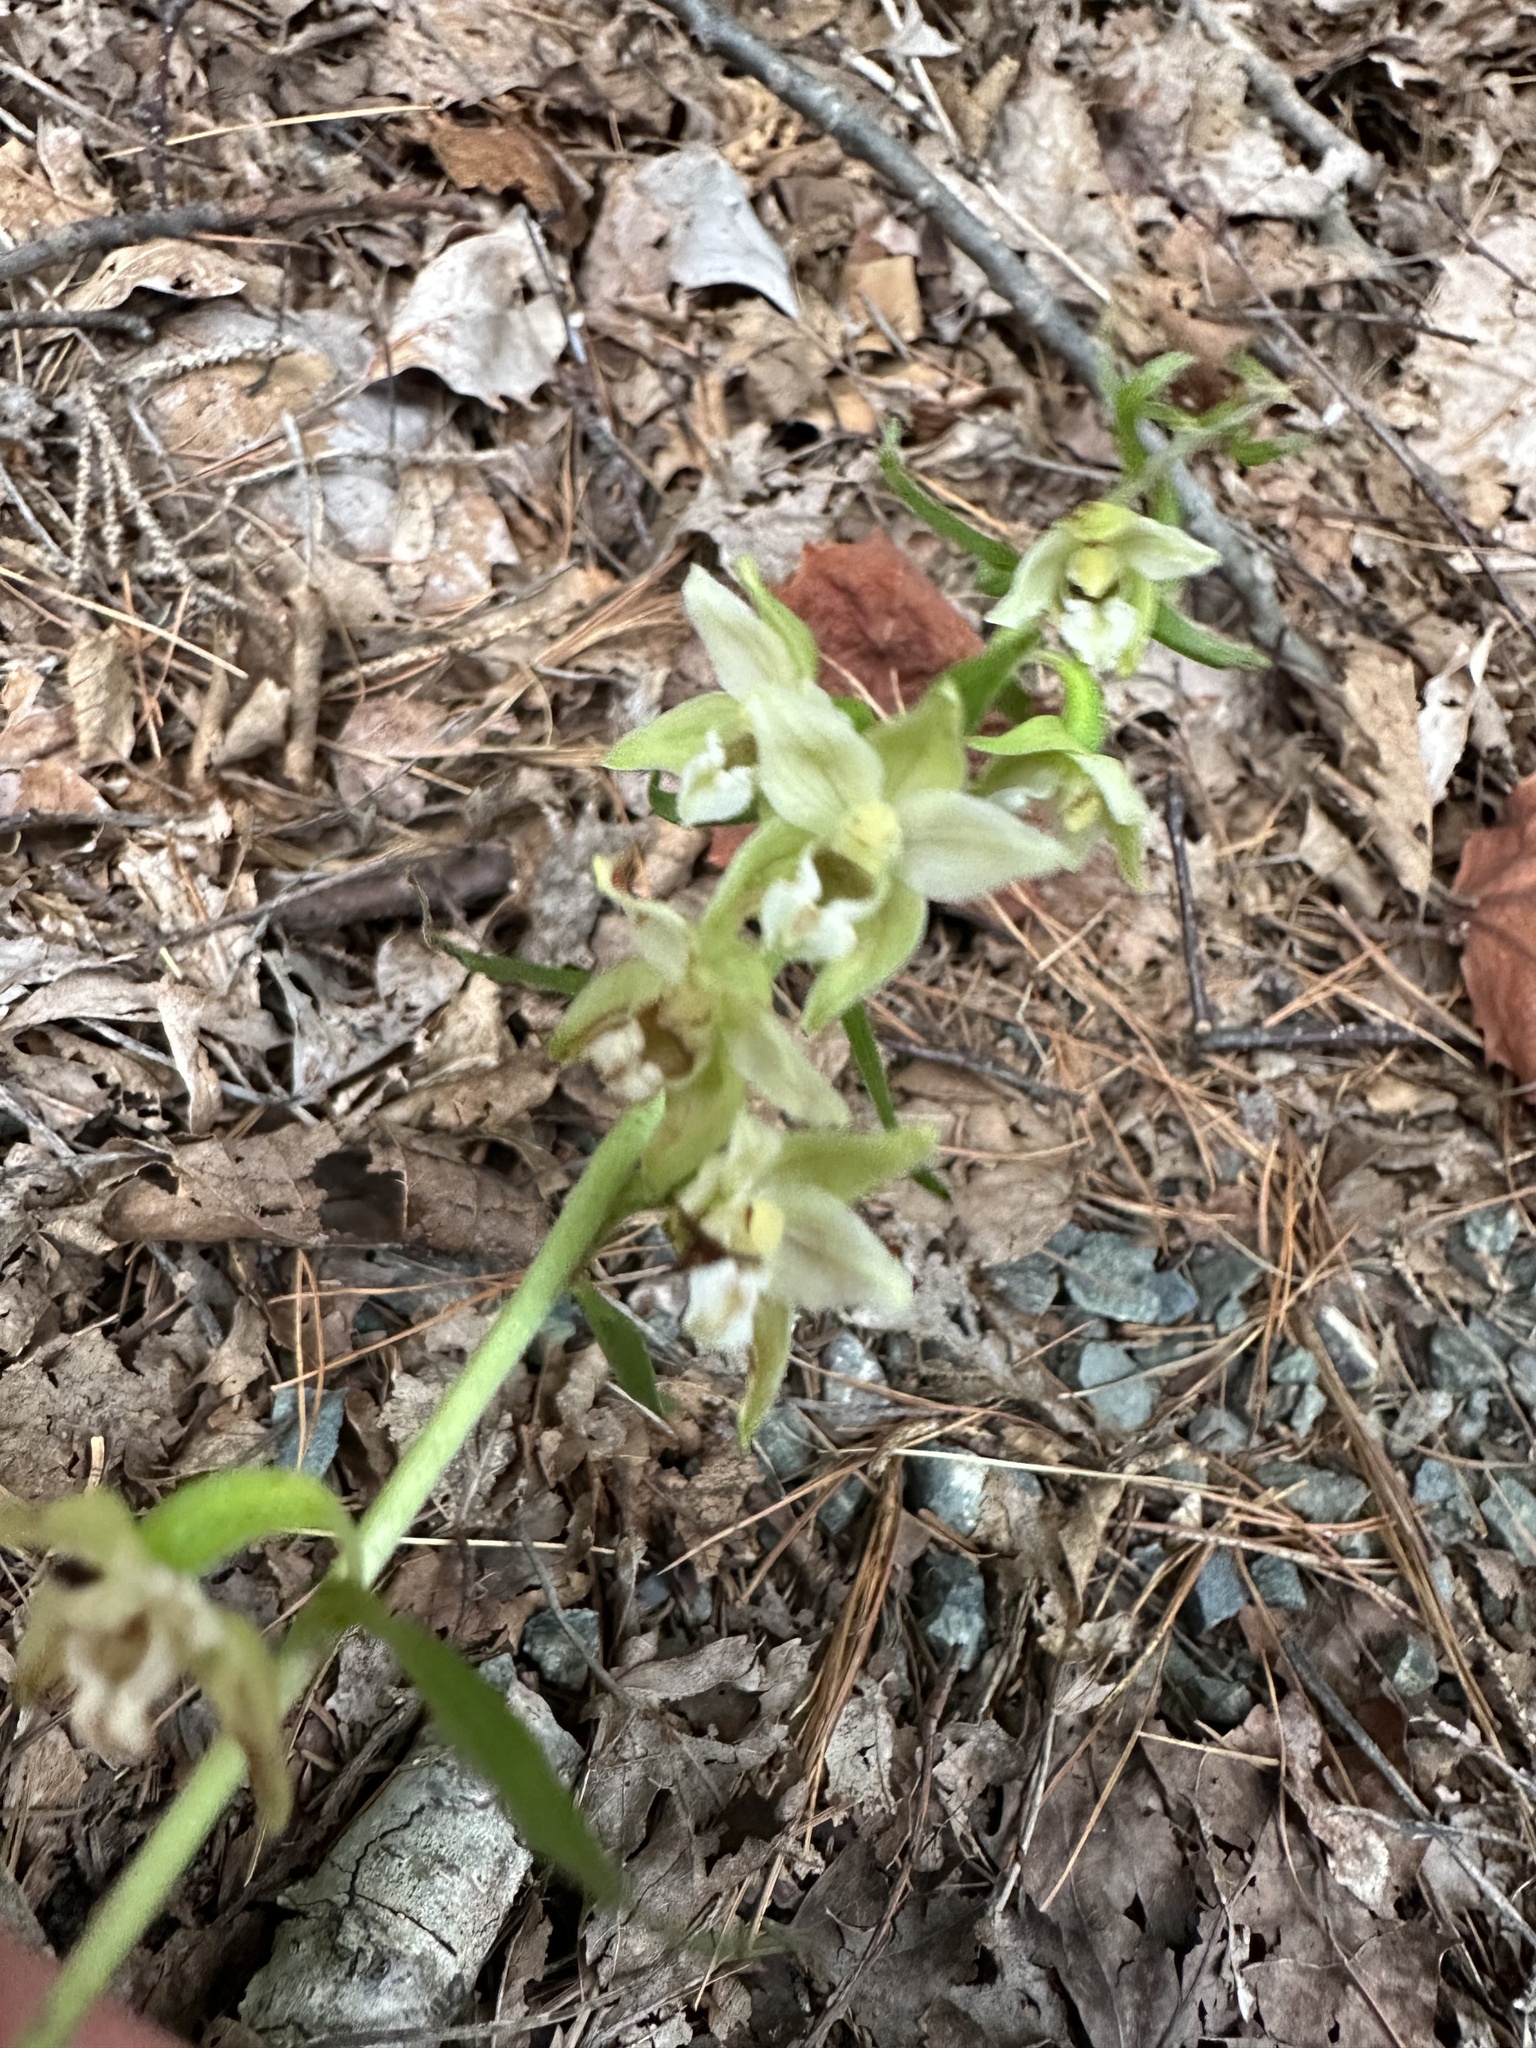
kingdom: Plantae
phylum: Tracheophyta
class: Liliopsida
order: Asparagales
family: Orchidaceae
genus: Epipactis
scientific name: Epipactis helleborine
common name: Broad-leaved helleborine
